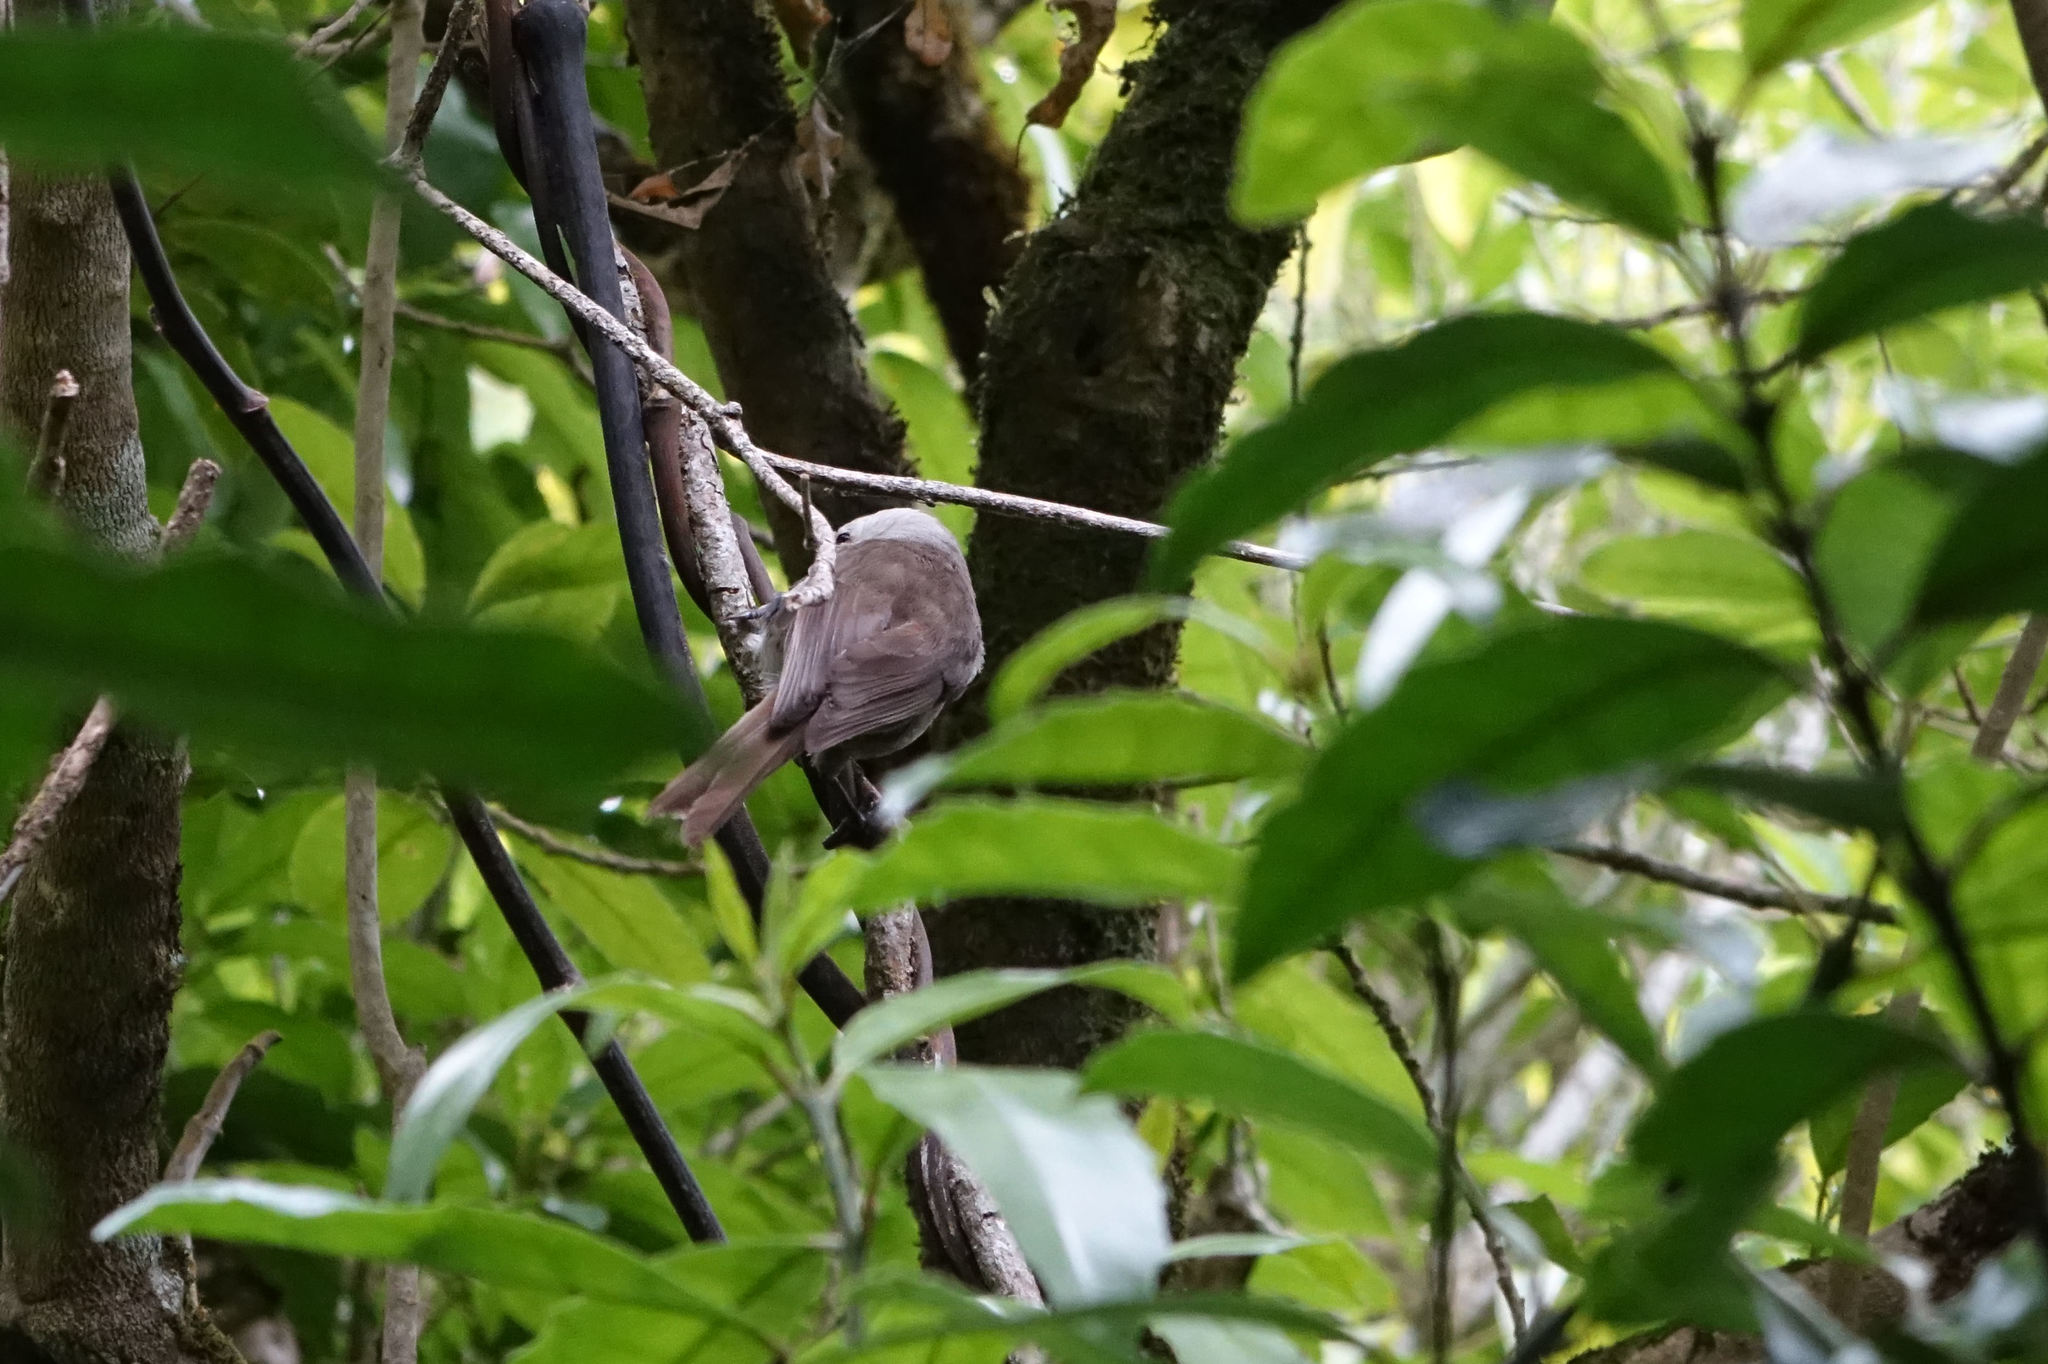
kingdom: Animalia
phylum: Chordata
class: Aves
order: Passeriformes
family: Acanthizidae
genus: Mohoua
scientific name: Mohoua albicilla
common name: Whitehead
